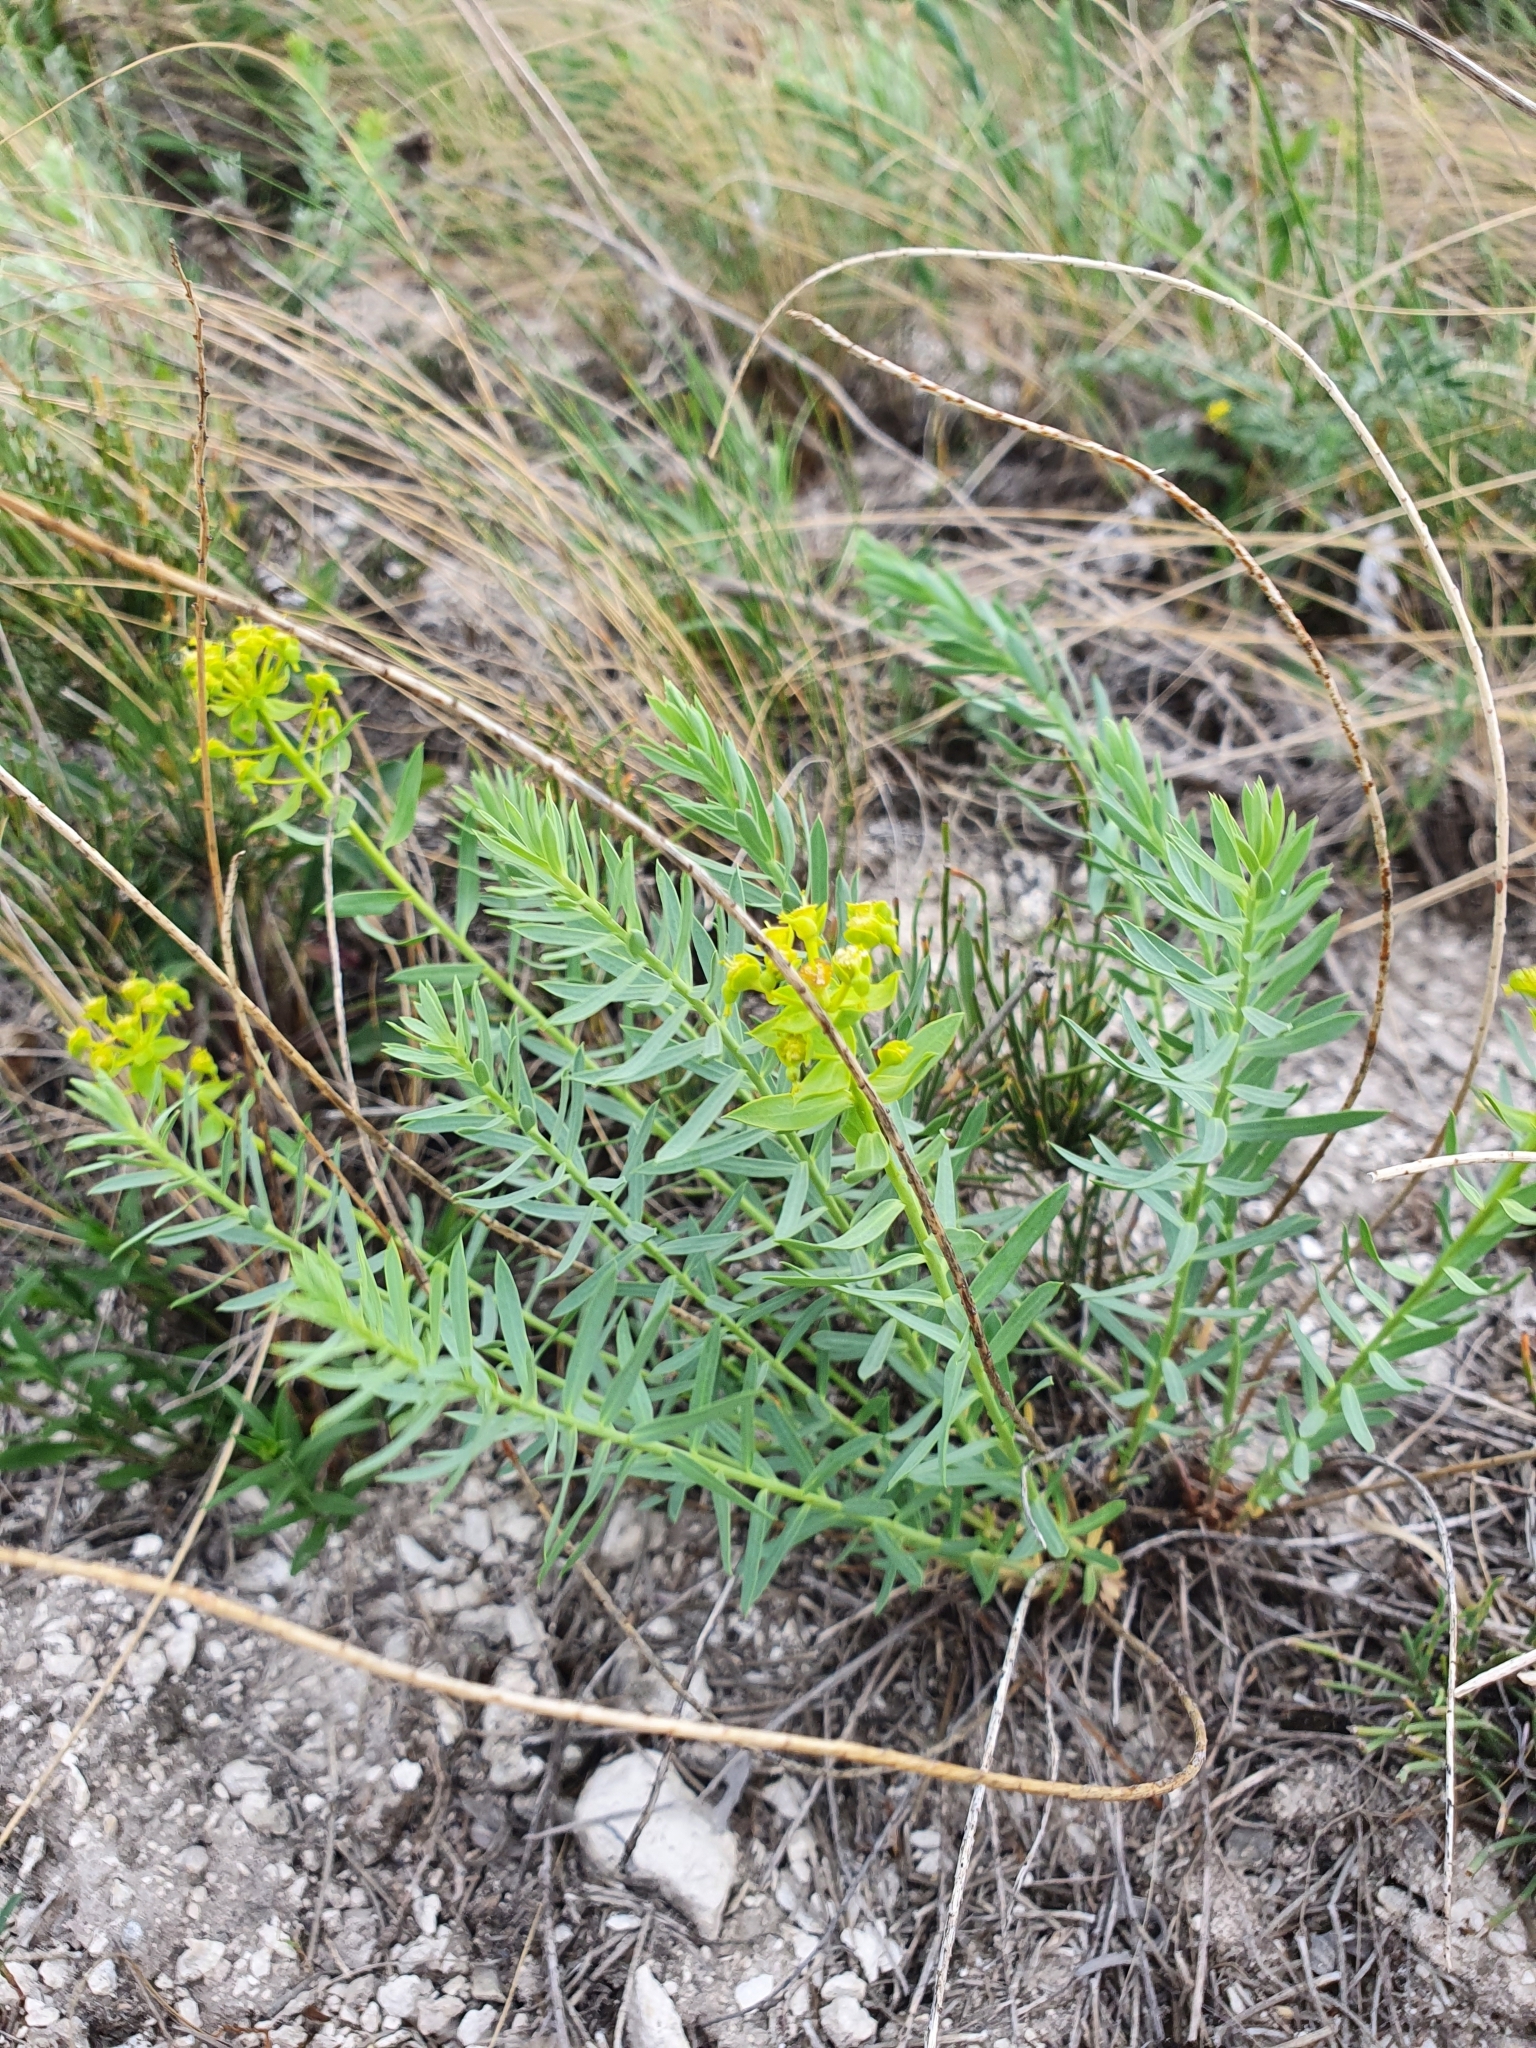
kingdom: Plantae
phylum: Tracheophyta
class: Magnoliopsida
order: Malpighiales
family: Euphorbiaceae
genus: Euphorbia
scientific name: Euphorbia seguieriana
